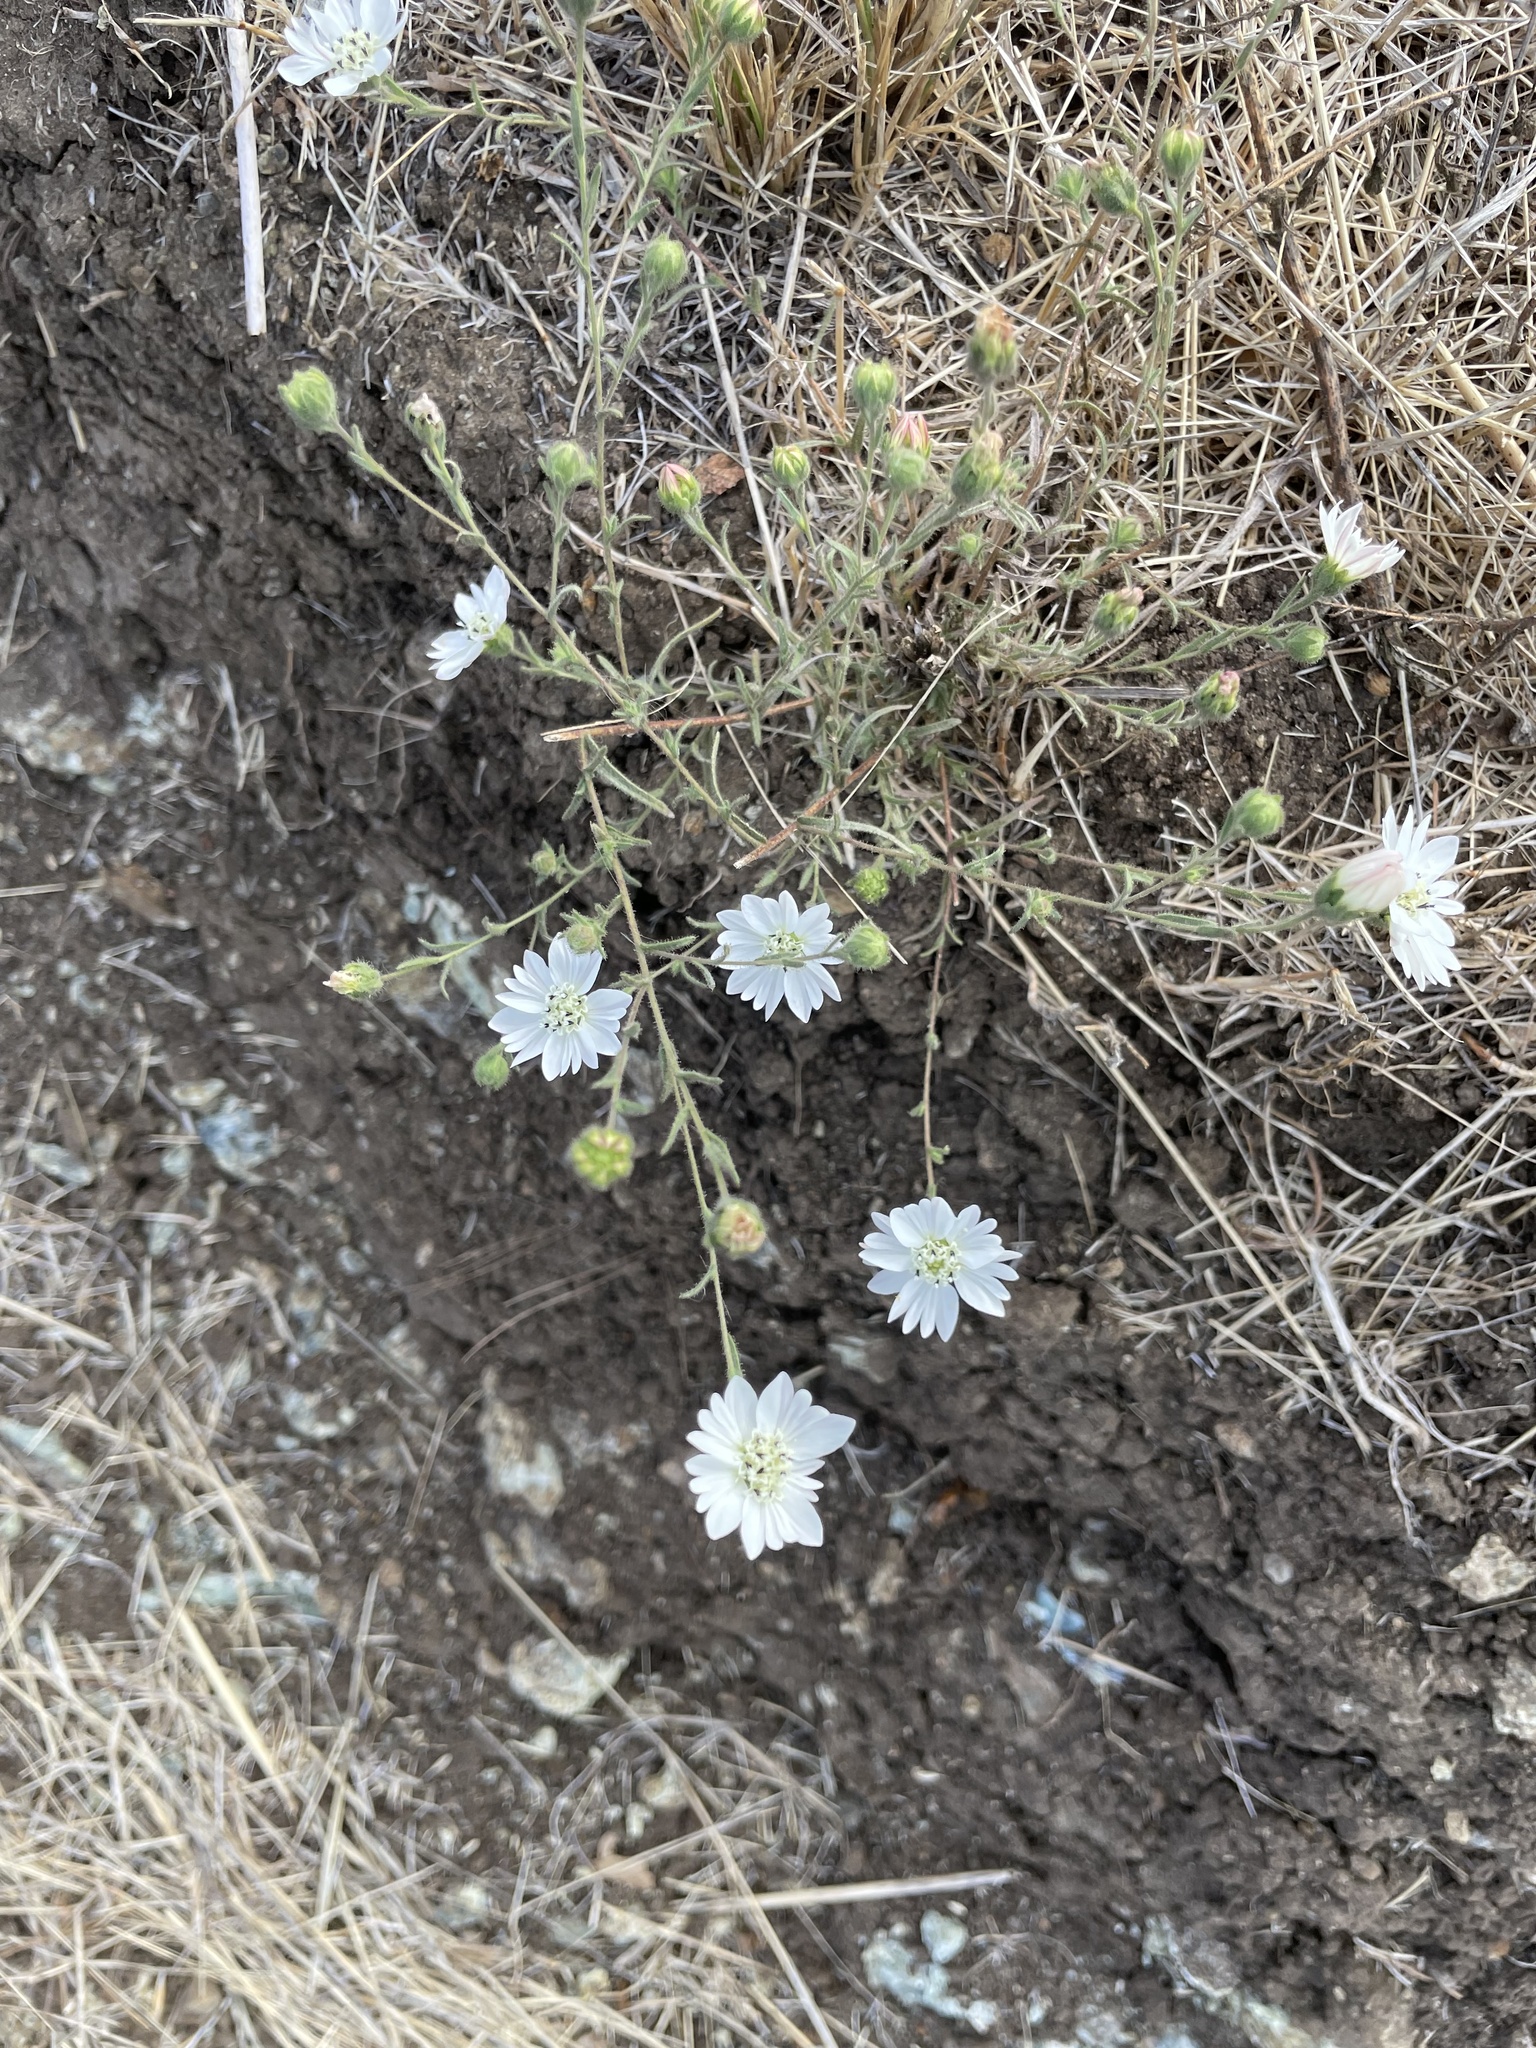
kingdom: Plantae
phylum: Tracheophyta
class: Magnoliopsida
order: Asterales
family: Asteraceae
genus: Hemizonia
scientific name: Hemizonia congesta
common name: Hayfield tarweed
